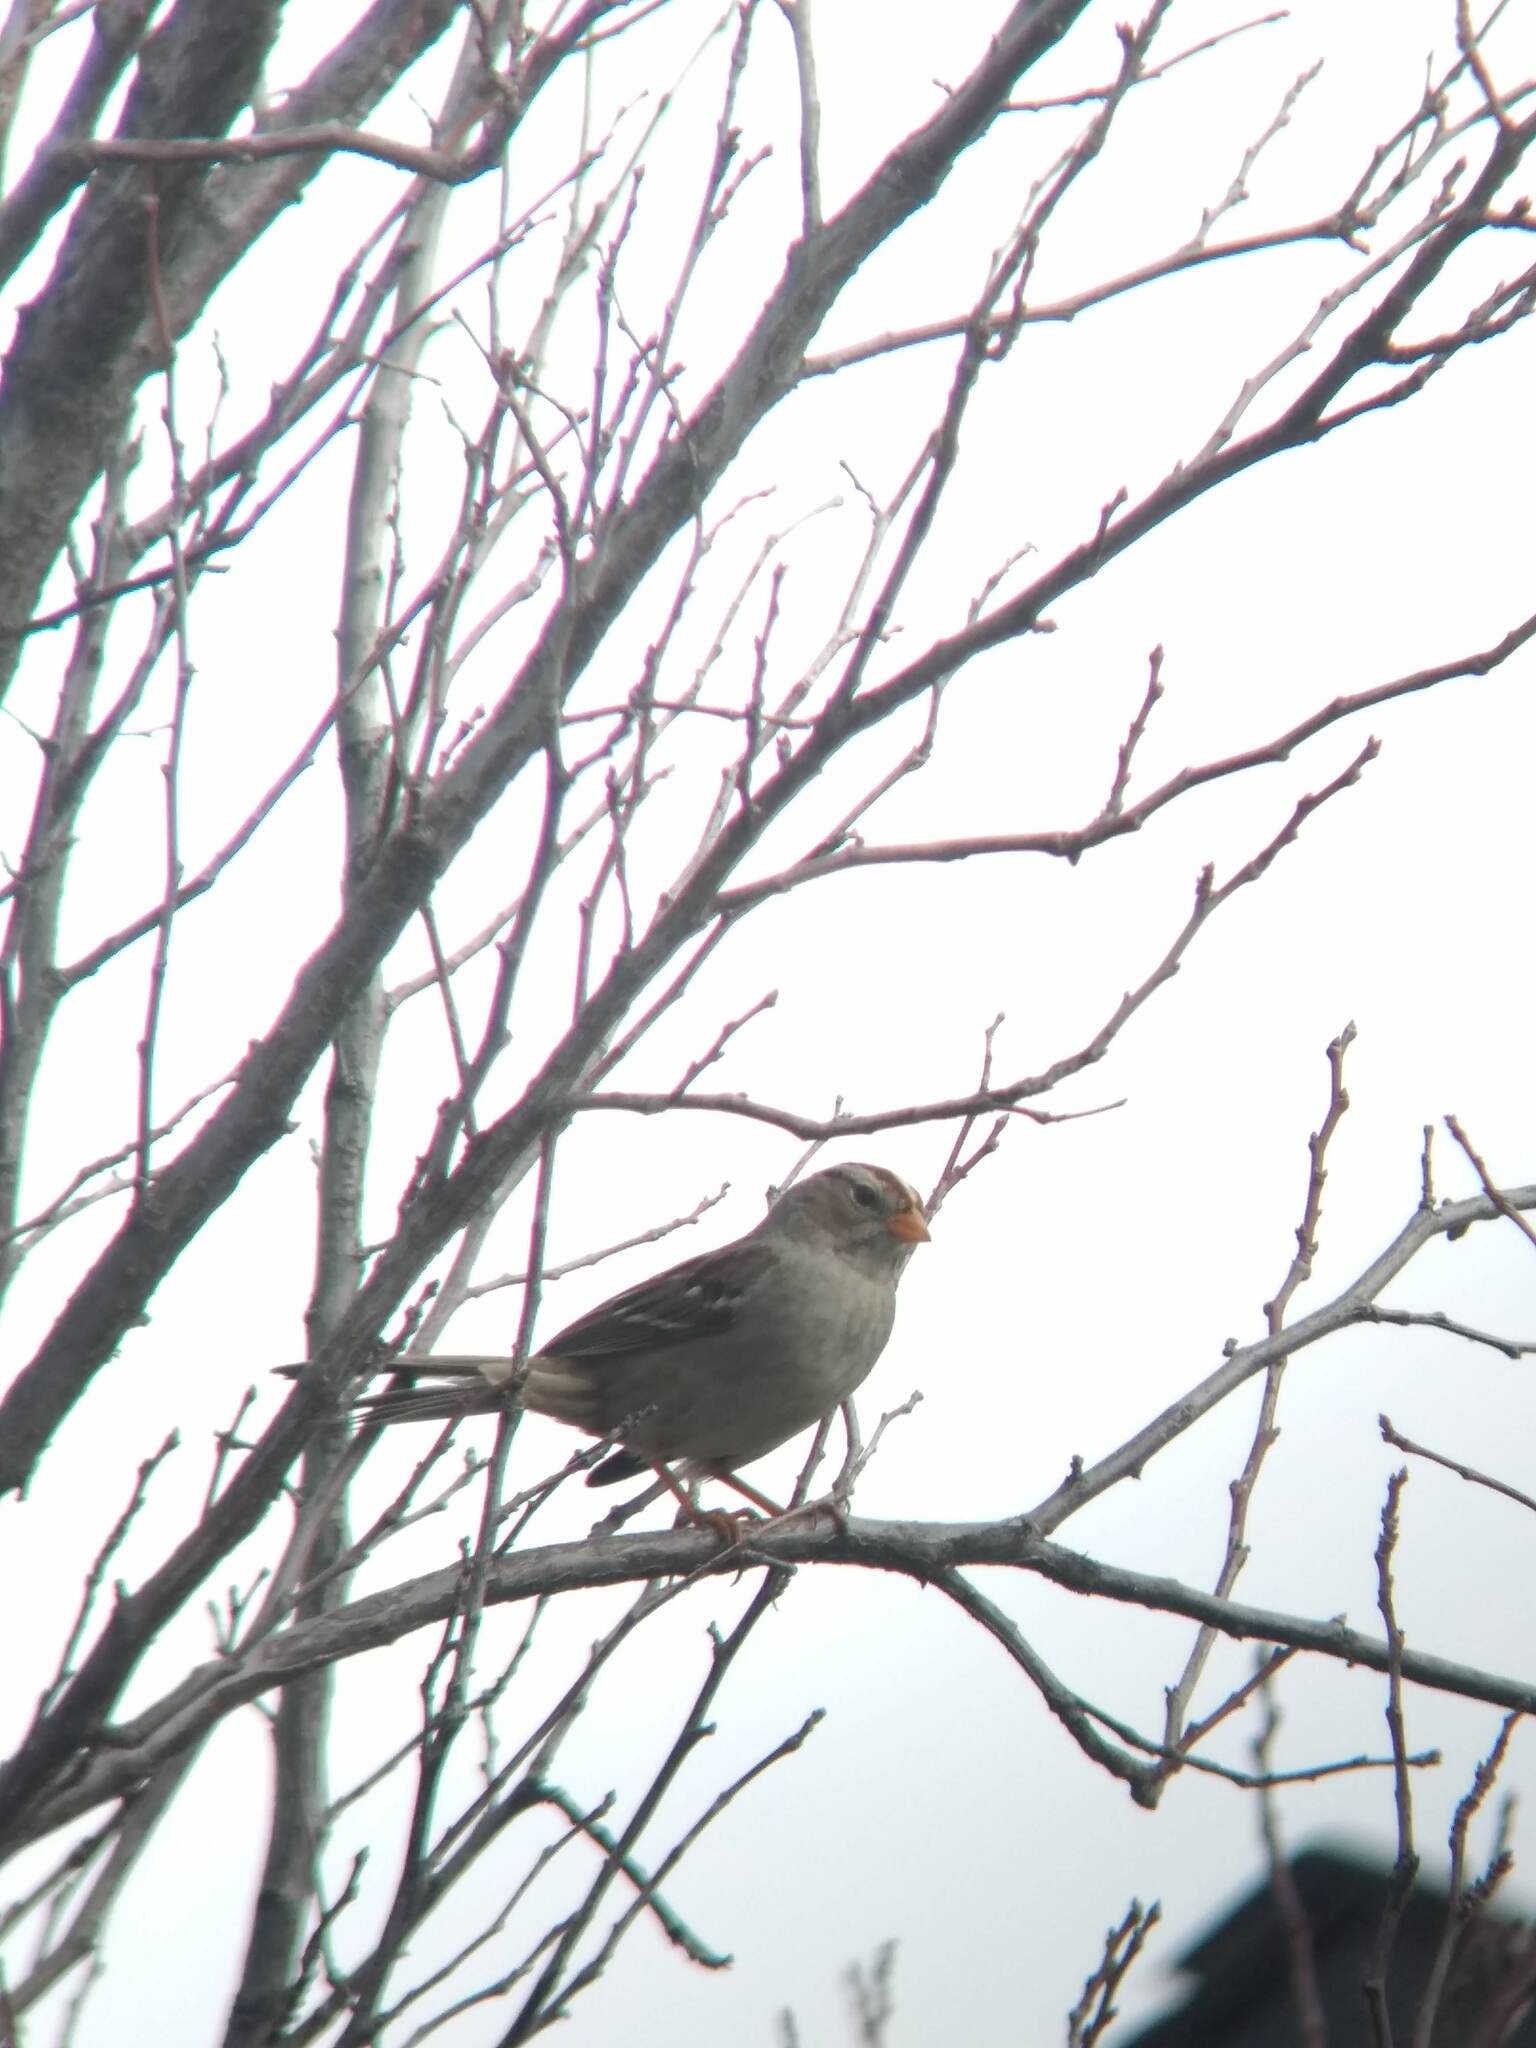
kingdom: Animalia
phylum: Chordata
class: Aves
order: Passeriformes
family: Passerellidae
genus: Zonotrichia
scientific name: Zonotrichia leucophrys
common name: White-crowned sparrow
